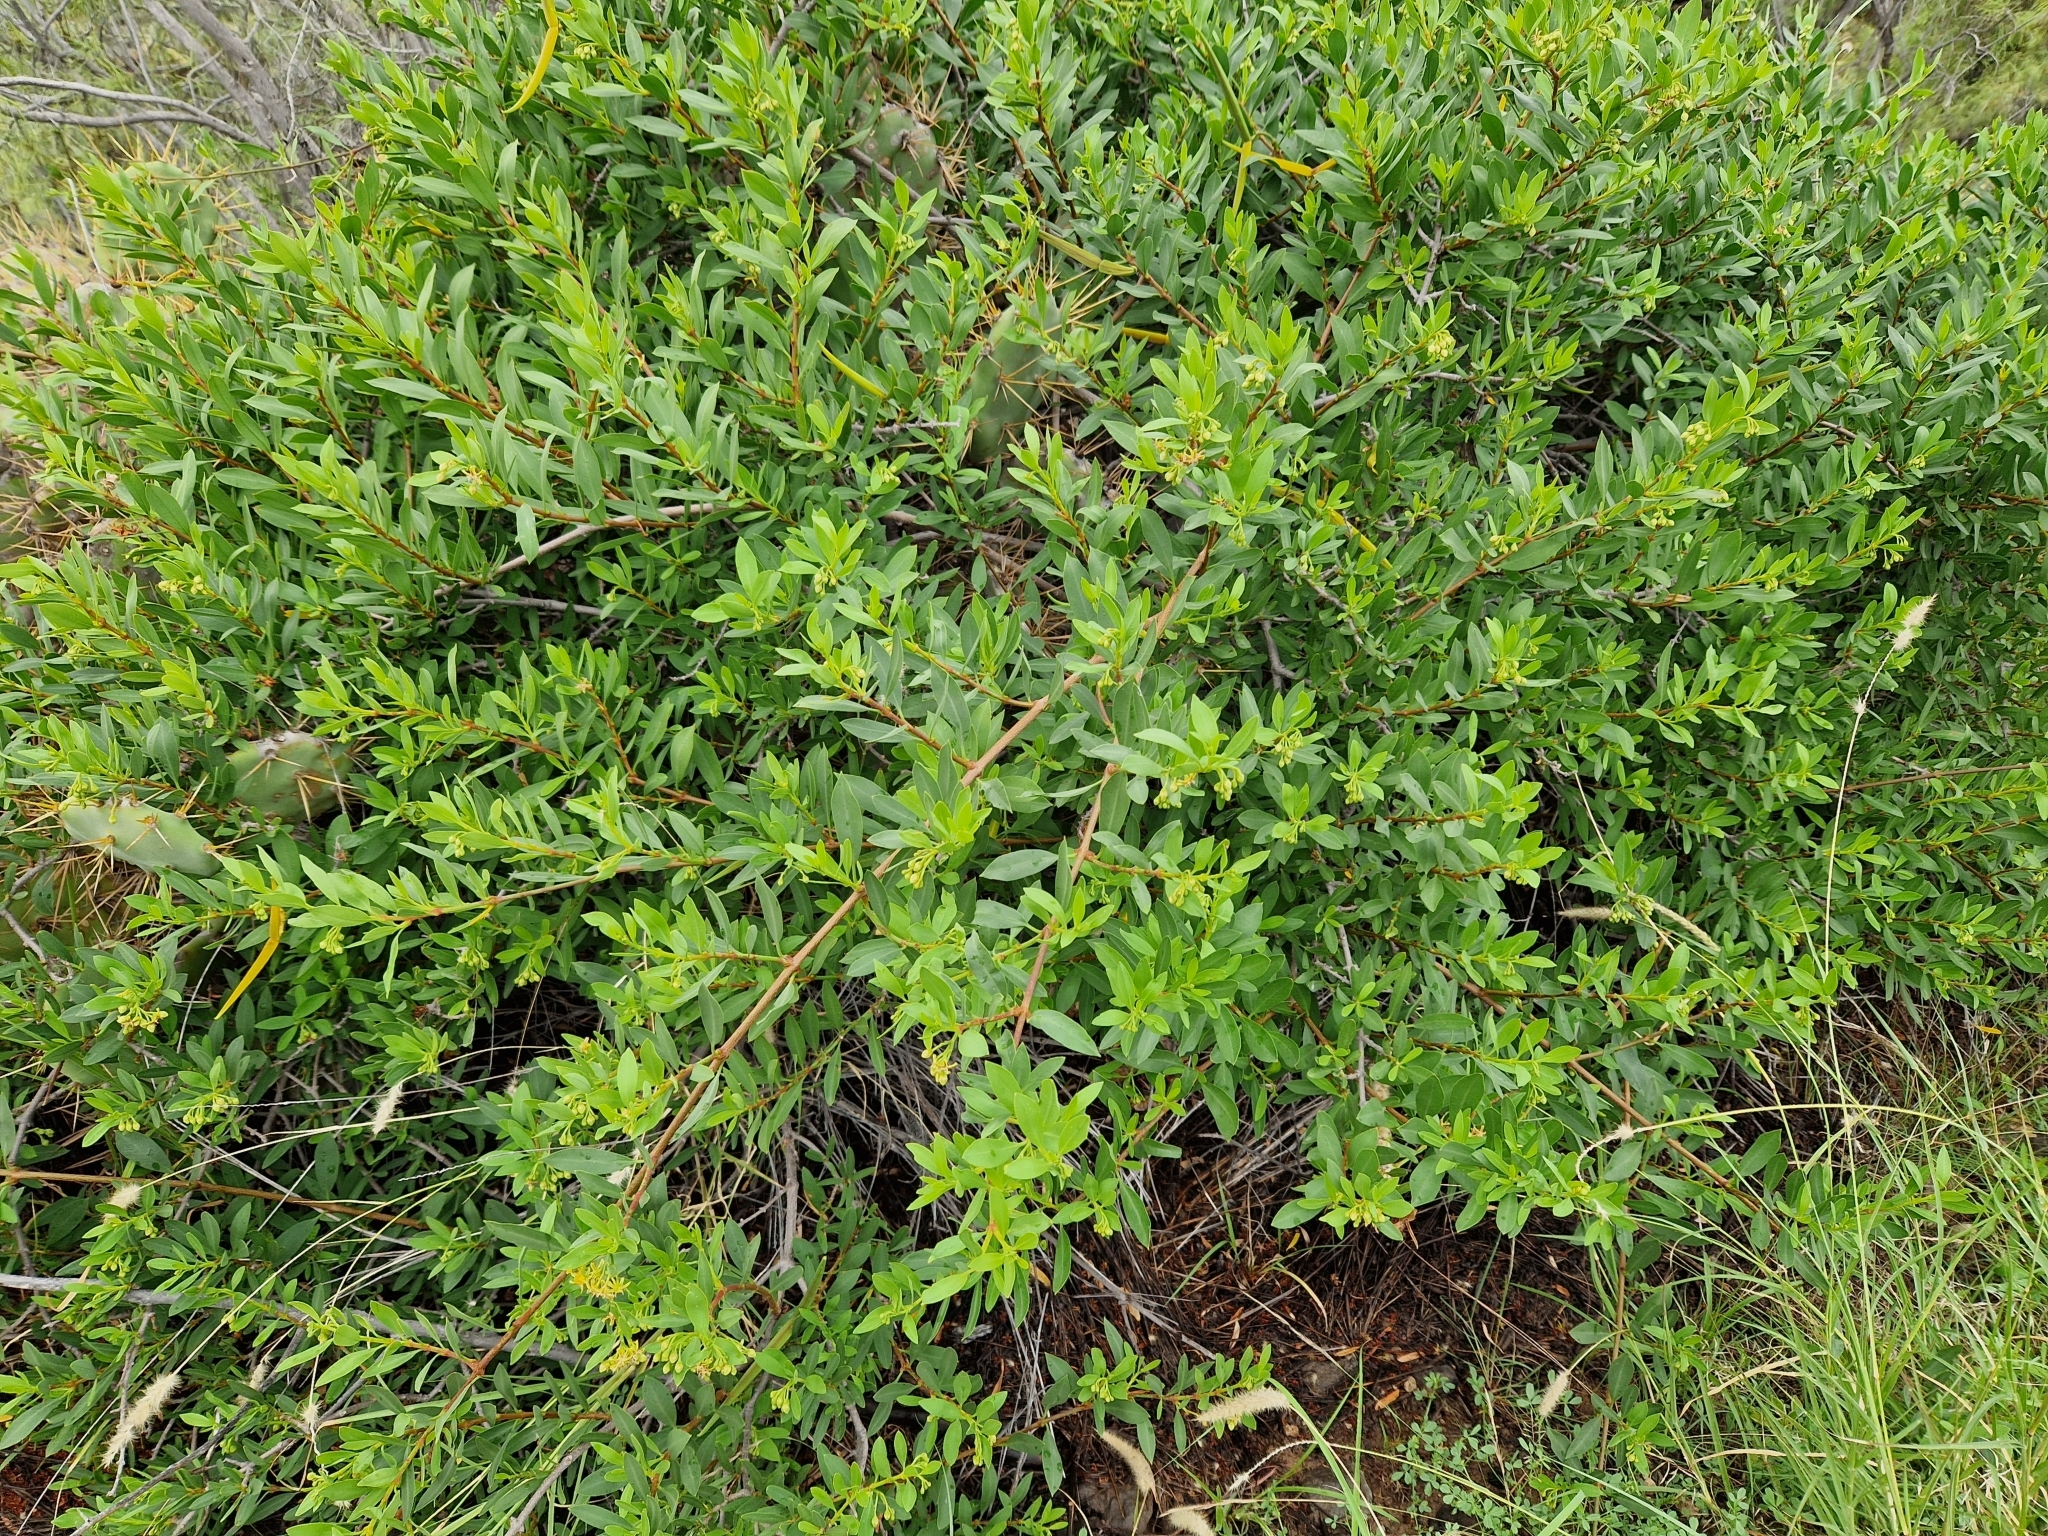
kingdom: Plantae
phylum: Tracheophyta
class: Magnoliopsida
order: Gentianales
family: Apocynaceae
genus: Periploca
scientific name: Periploca laevigata
